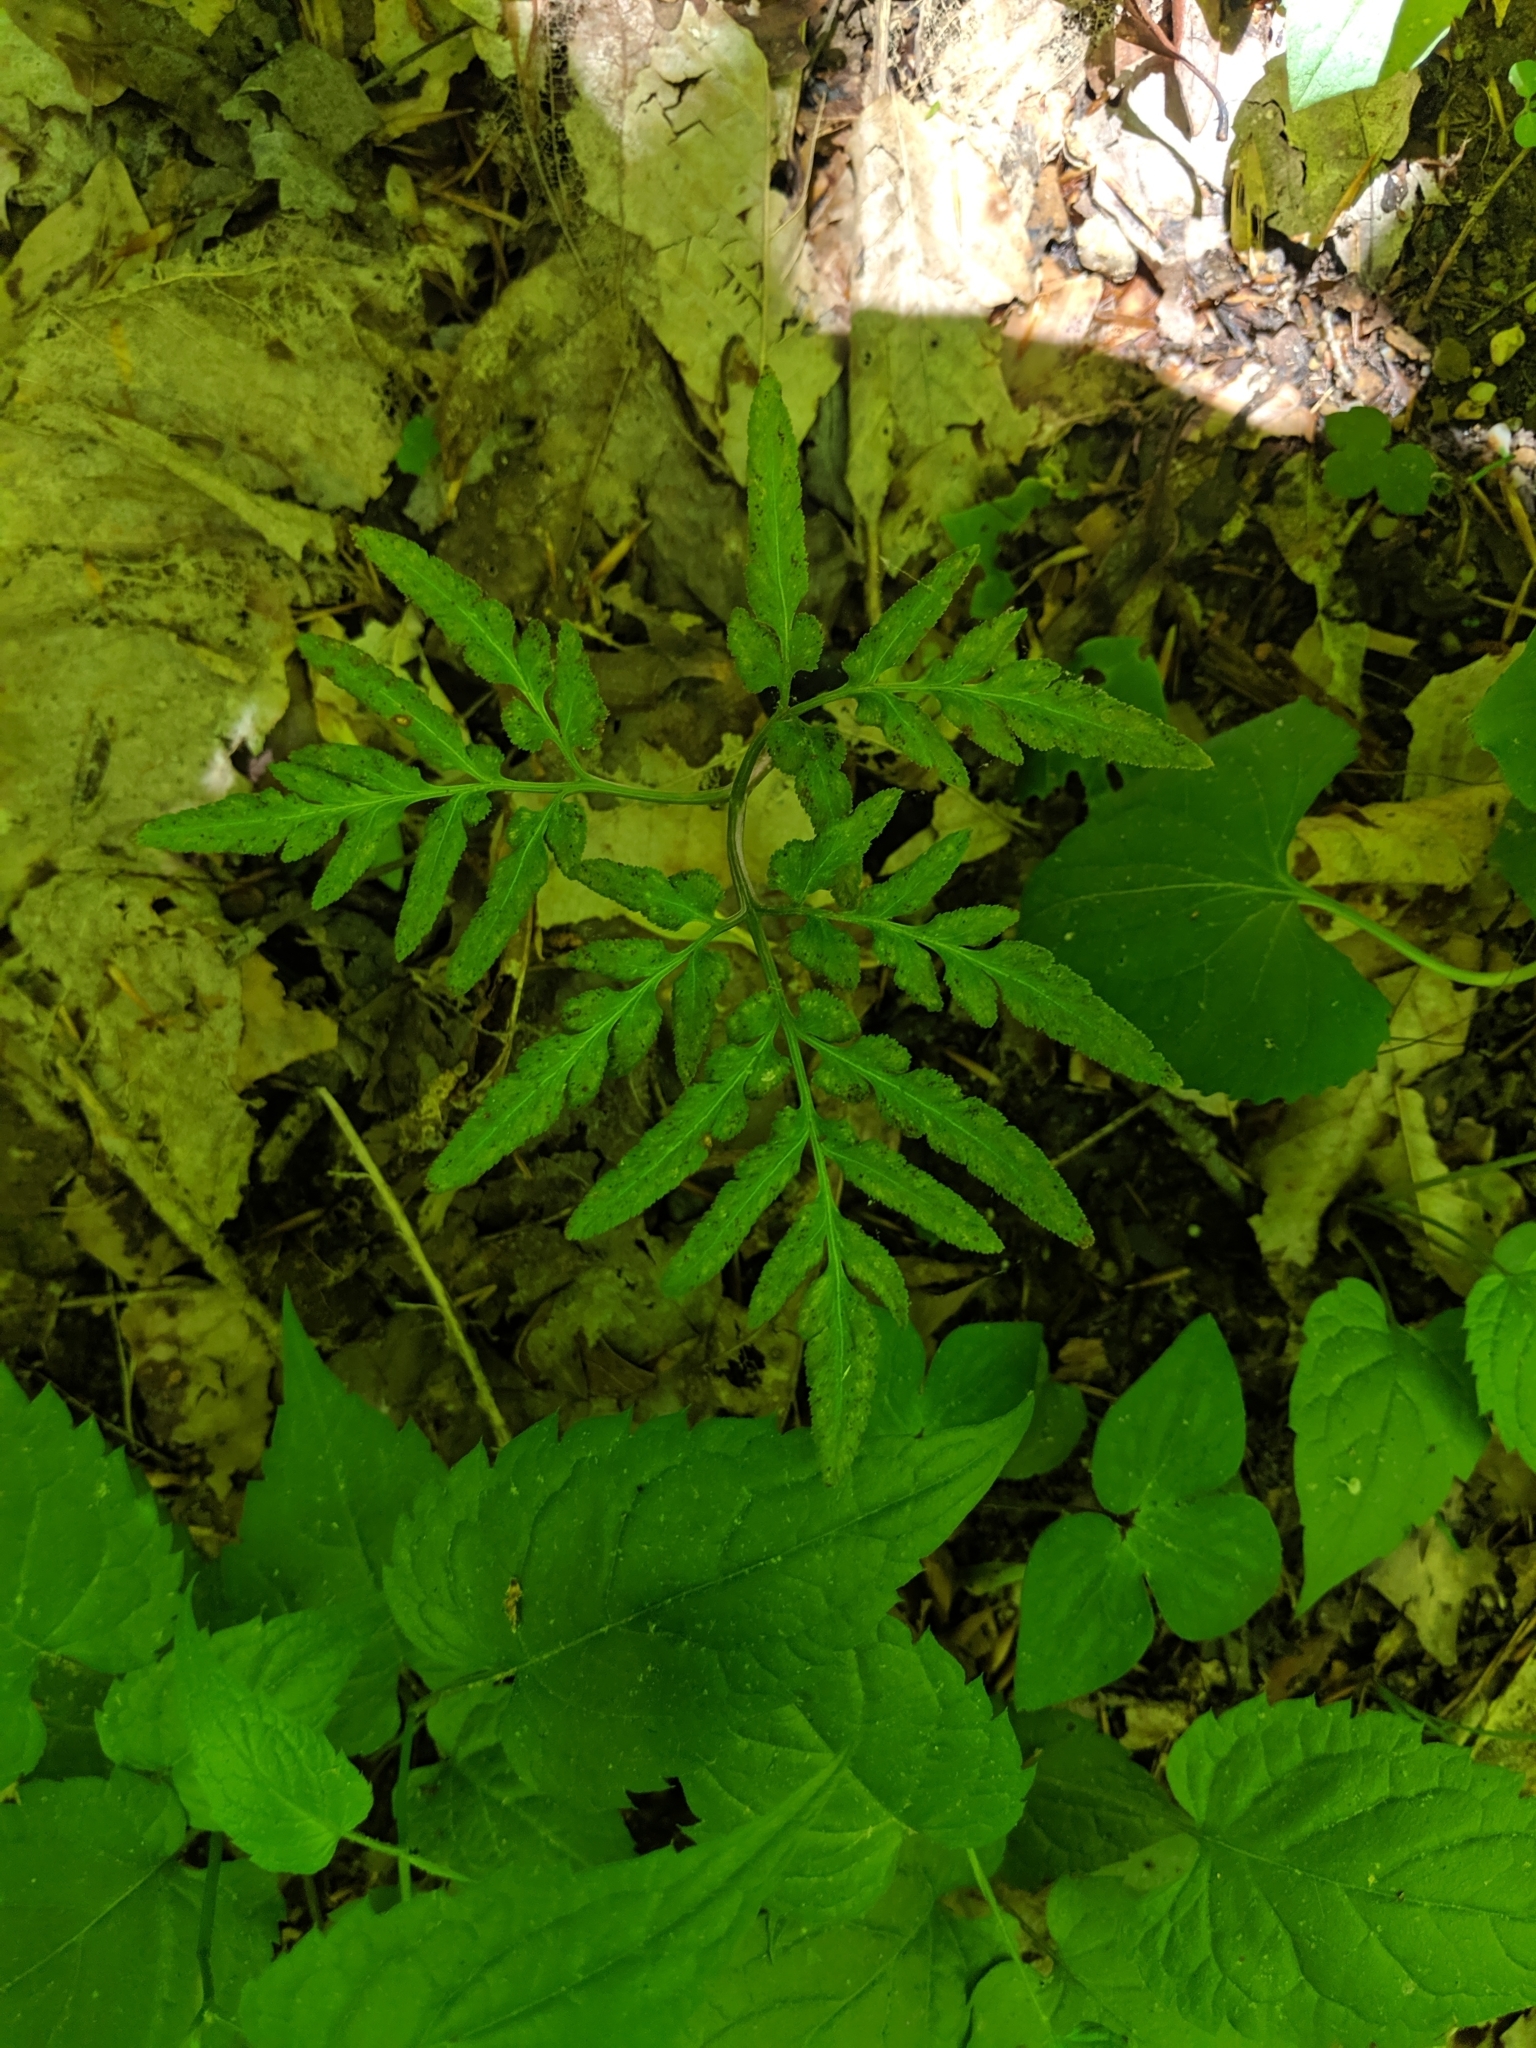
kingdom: Plantae
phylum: Tracheophyta
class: Polypodiopsida
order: Ophioglossales
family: Ophioglossaceae
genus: Sceptridium
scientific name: Sceptridium dissectum
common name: Cut-leaved grapefern
